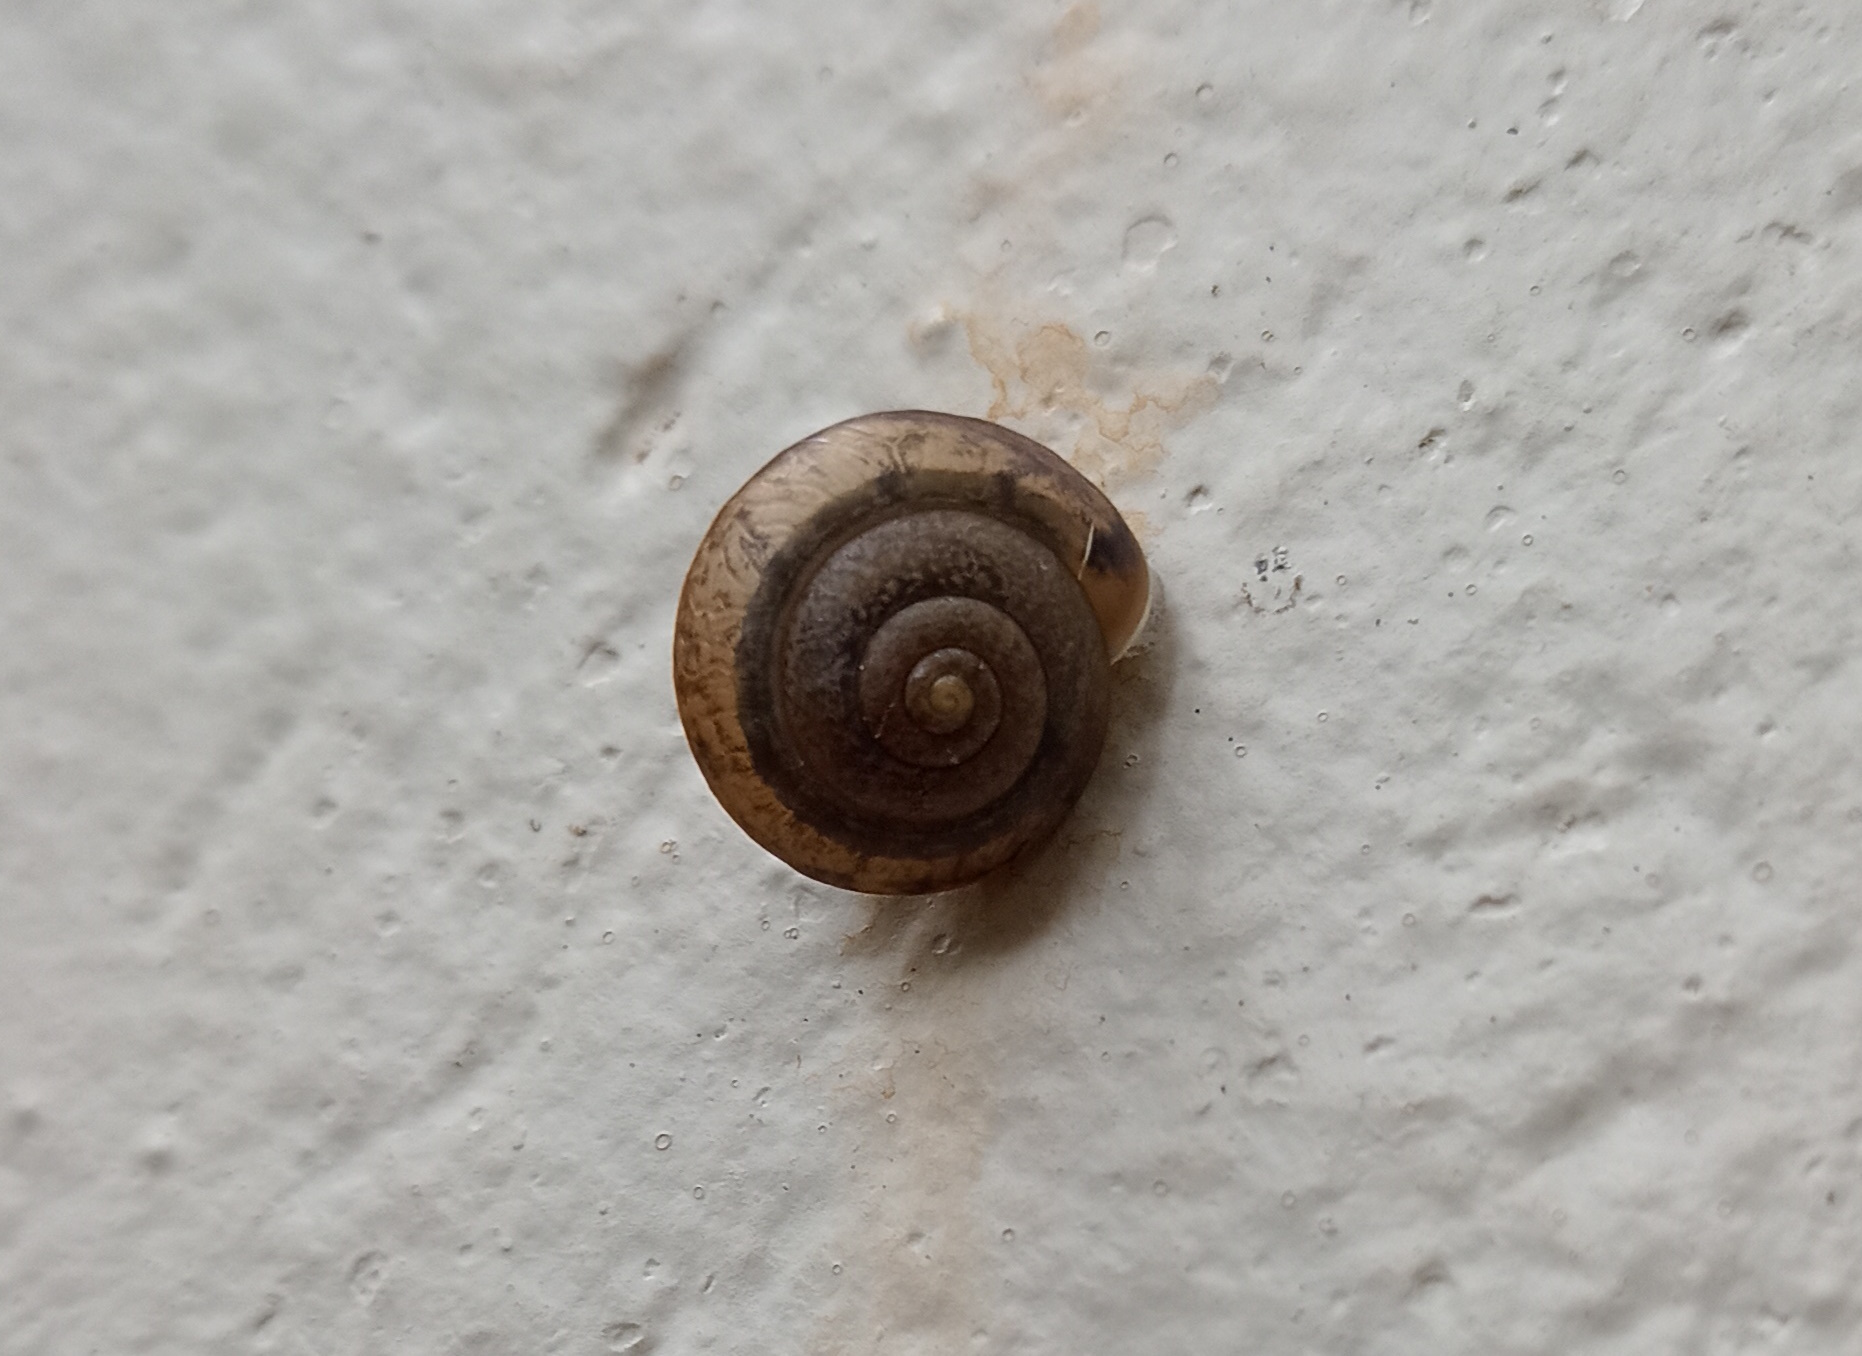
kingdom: Animalia
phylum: Mollusca
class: Gastropoda
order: Stylommatophora
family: Camaenidae
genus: Bradybaena
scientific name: Bradybaena similaris
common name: Asian trampsnail
